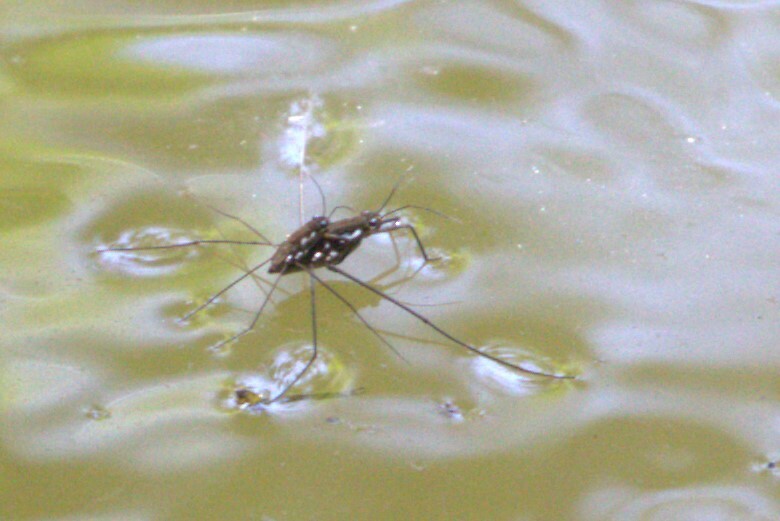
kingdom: Animalia
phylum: Arthropoda
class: Insecta
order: Hemiptera
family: Gerridae
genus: Tenagogerris
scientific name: Tenagogerris euphrosyne
